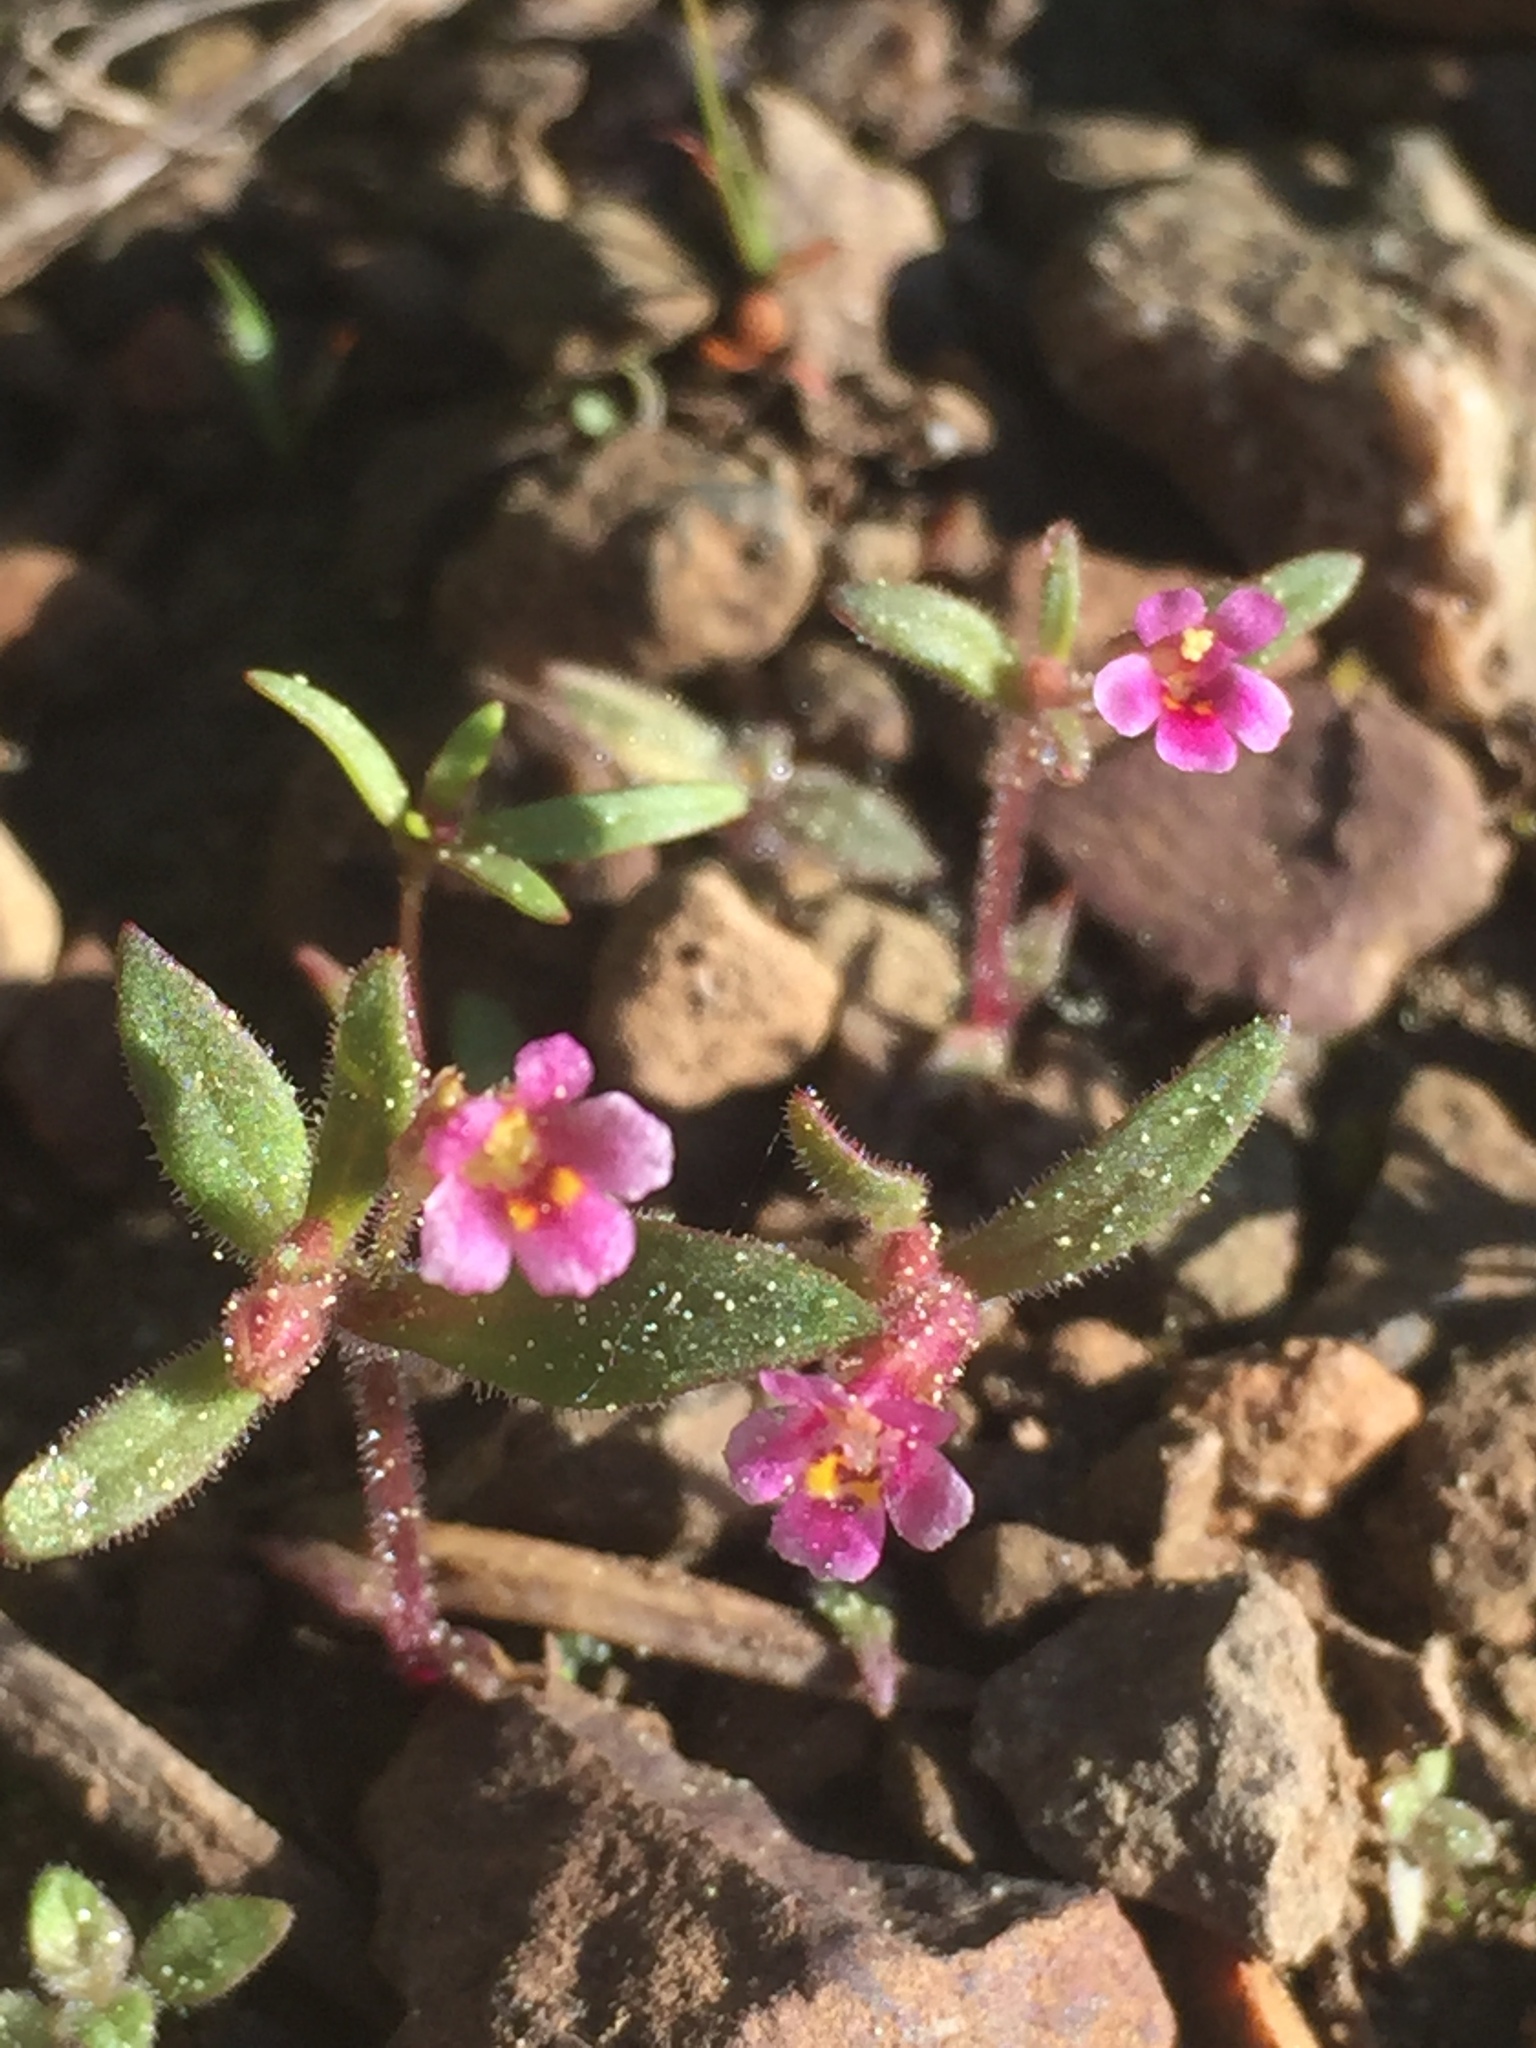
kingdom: Plantae
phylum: Tracheophyta
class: Magnoliopsida
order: Lamiales
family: Phrymaceae
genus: Erythranthe
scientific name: Erythranthe breweri
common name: Brewer's monkeyflower
